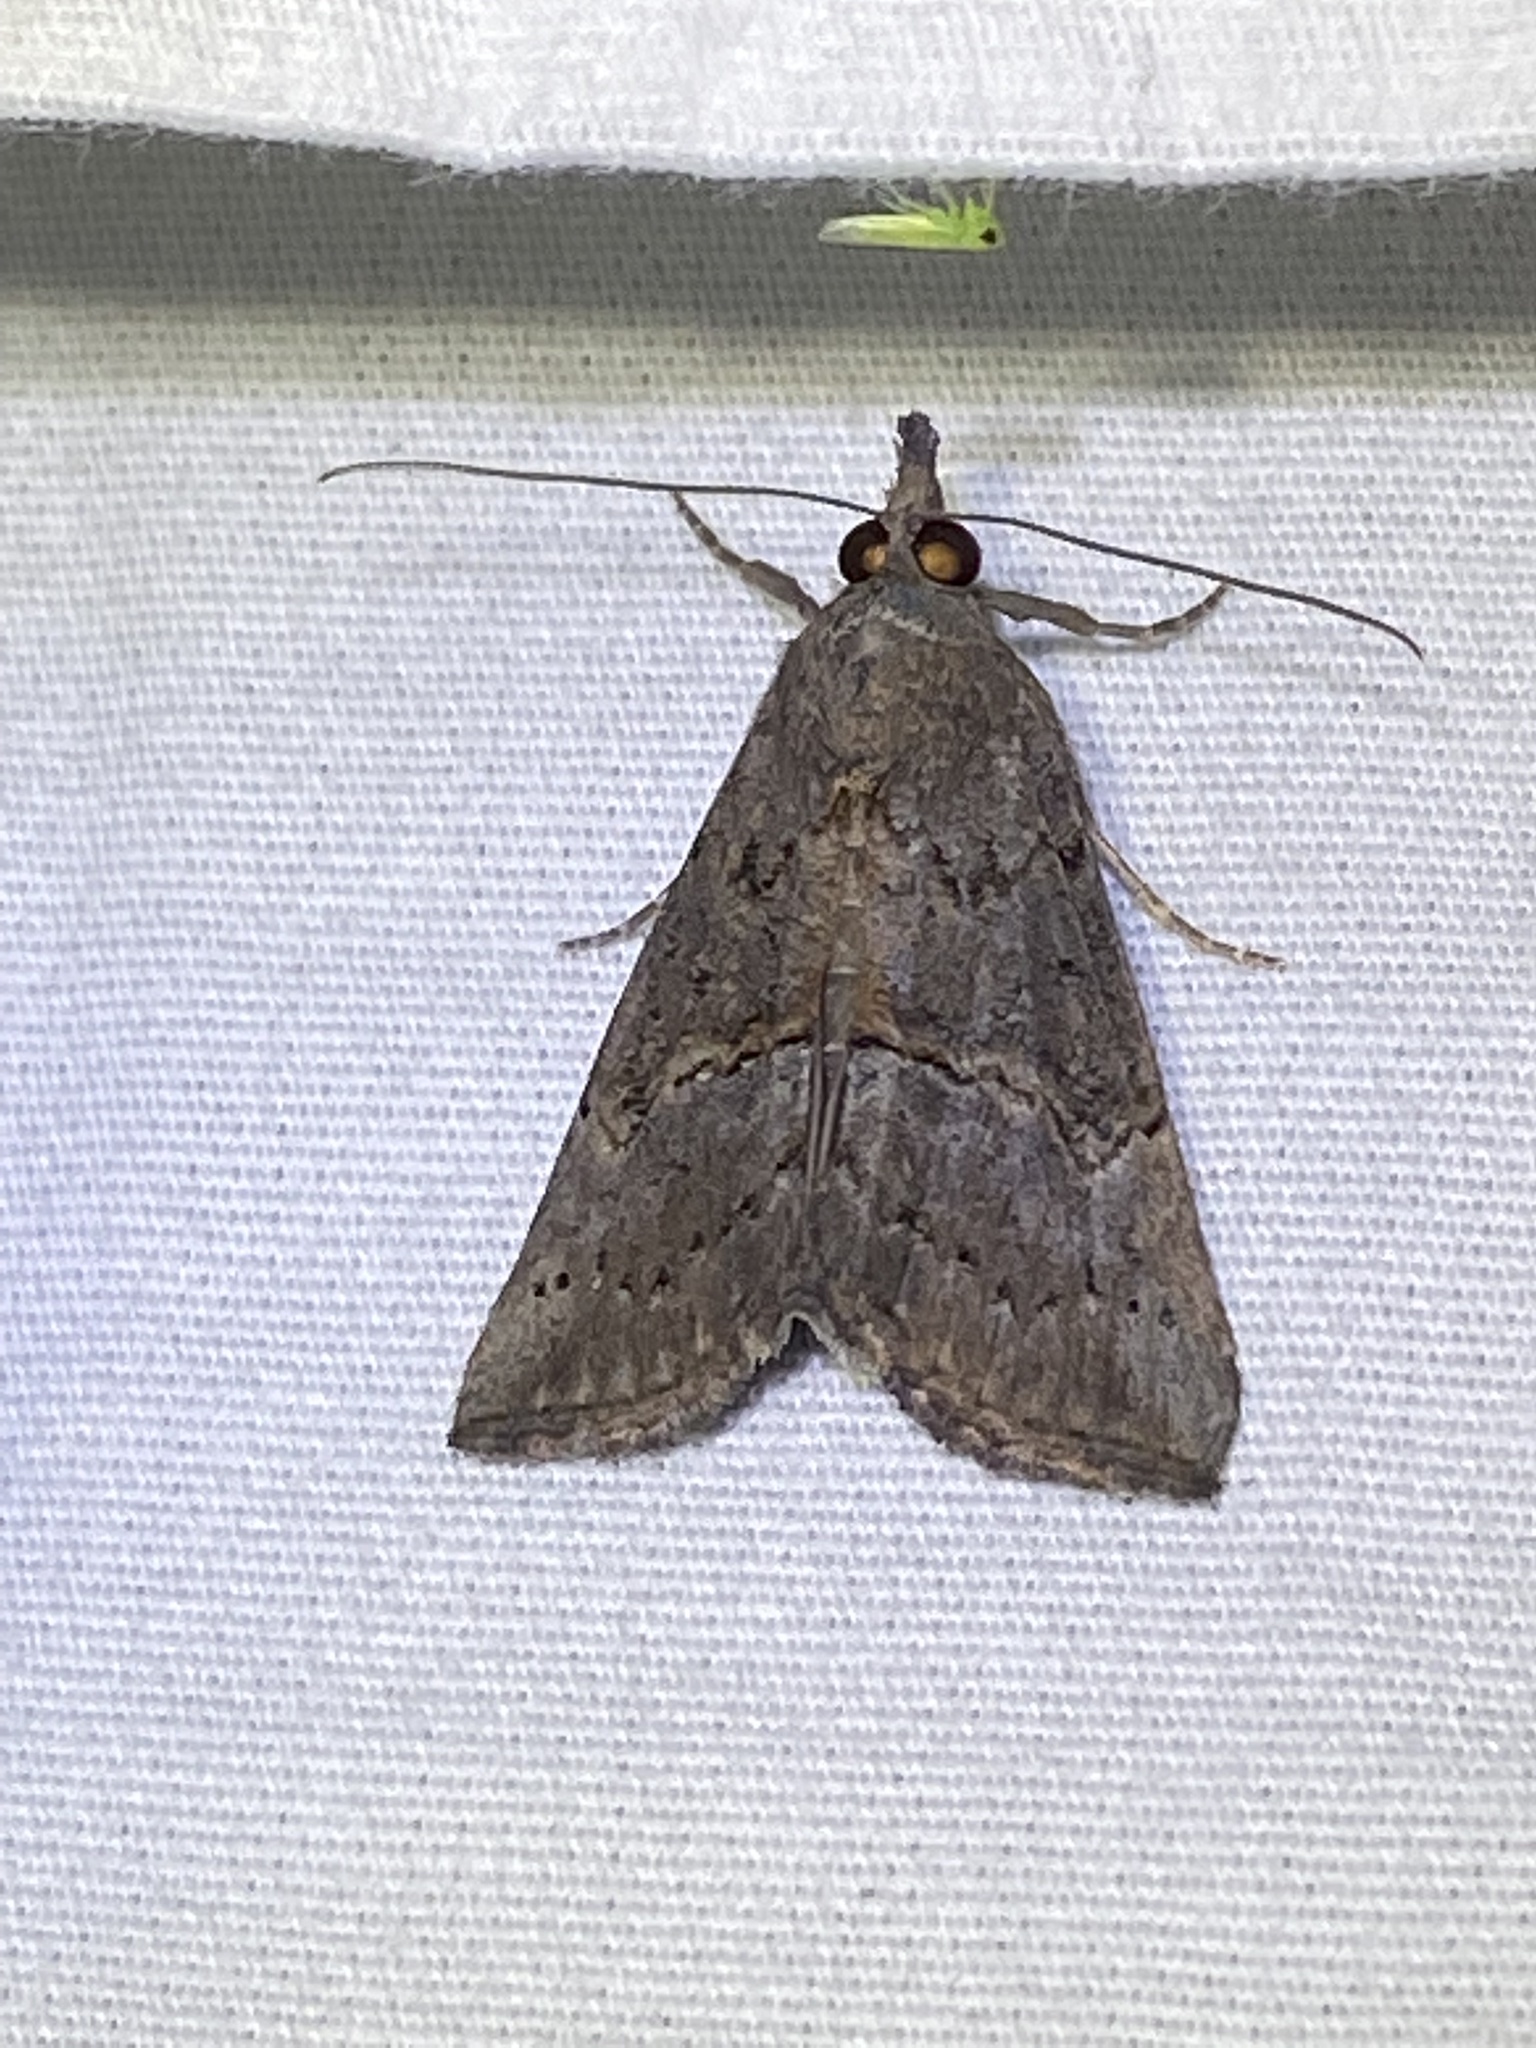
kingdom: Animalia
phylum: Arthropoda
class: Insecta
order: Lepidoptera
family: Erebidae
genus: Hypena
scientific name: Hypena scabra
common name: Green cloverworm
